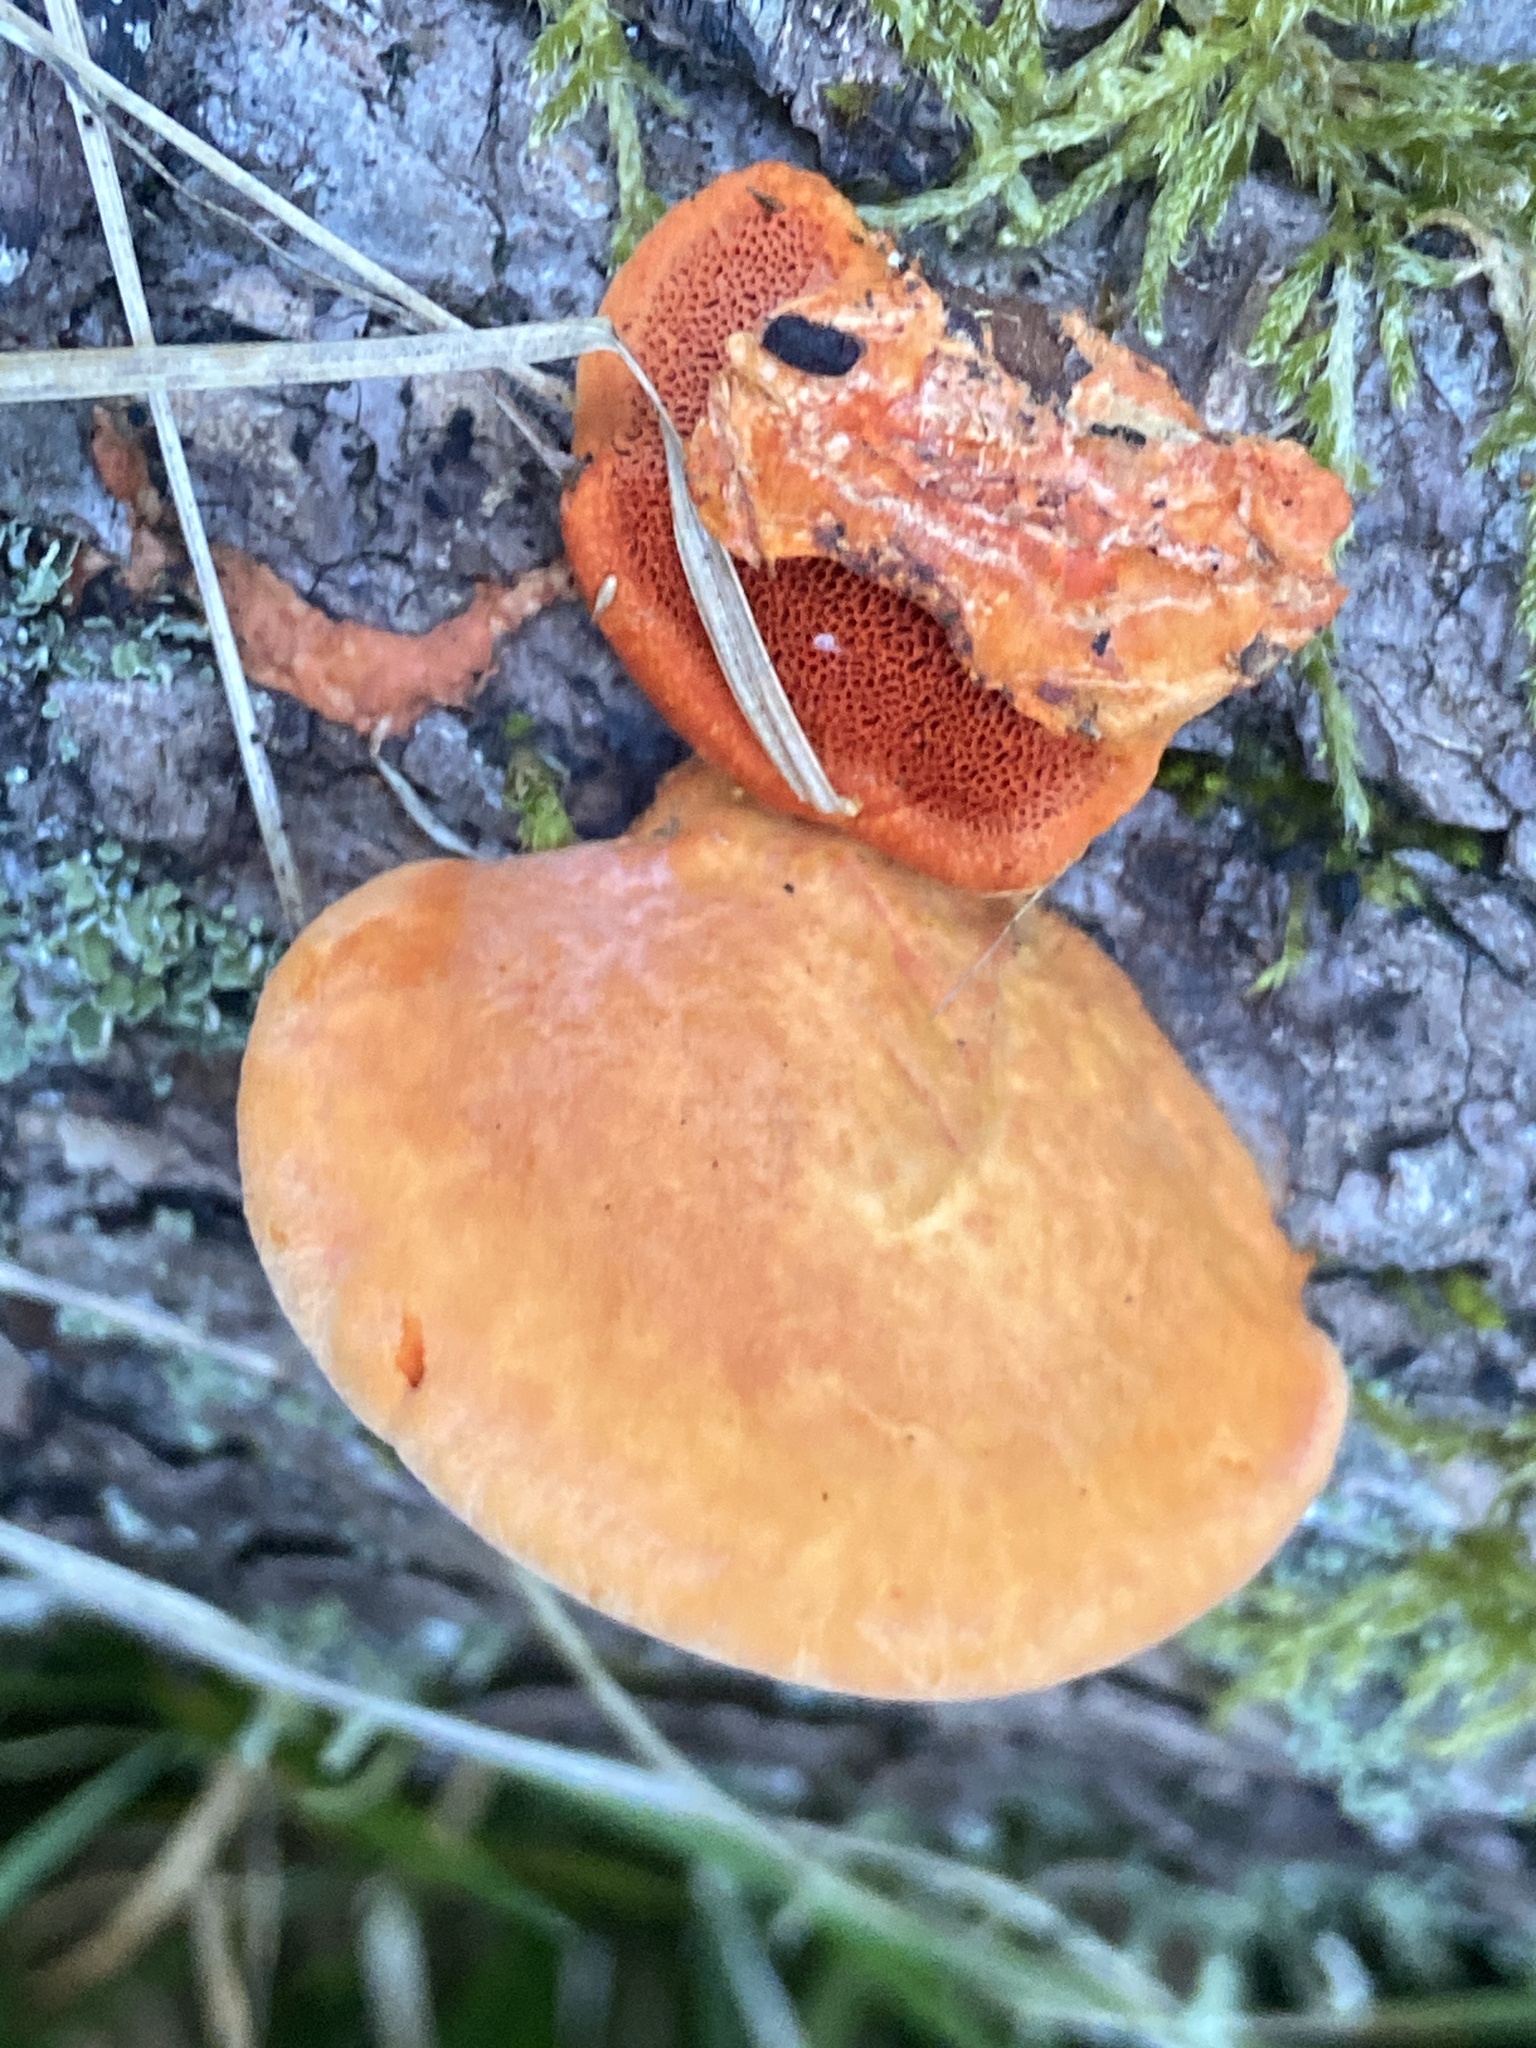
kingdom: Fungi
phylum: Basidiomycota
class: Agaricomycetes
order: Polyporales
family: Polyporaceae
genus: Trametes
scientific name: Trametes cinnabarina
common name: Northern cinnabar polypore
